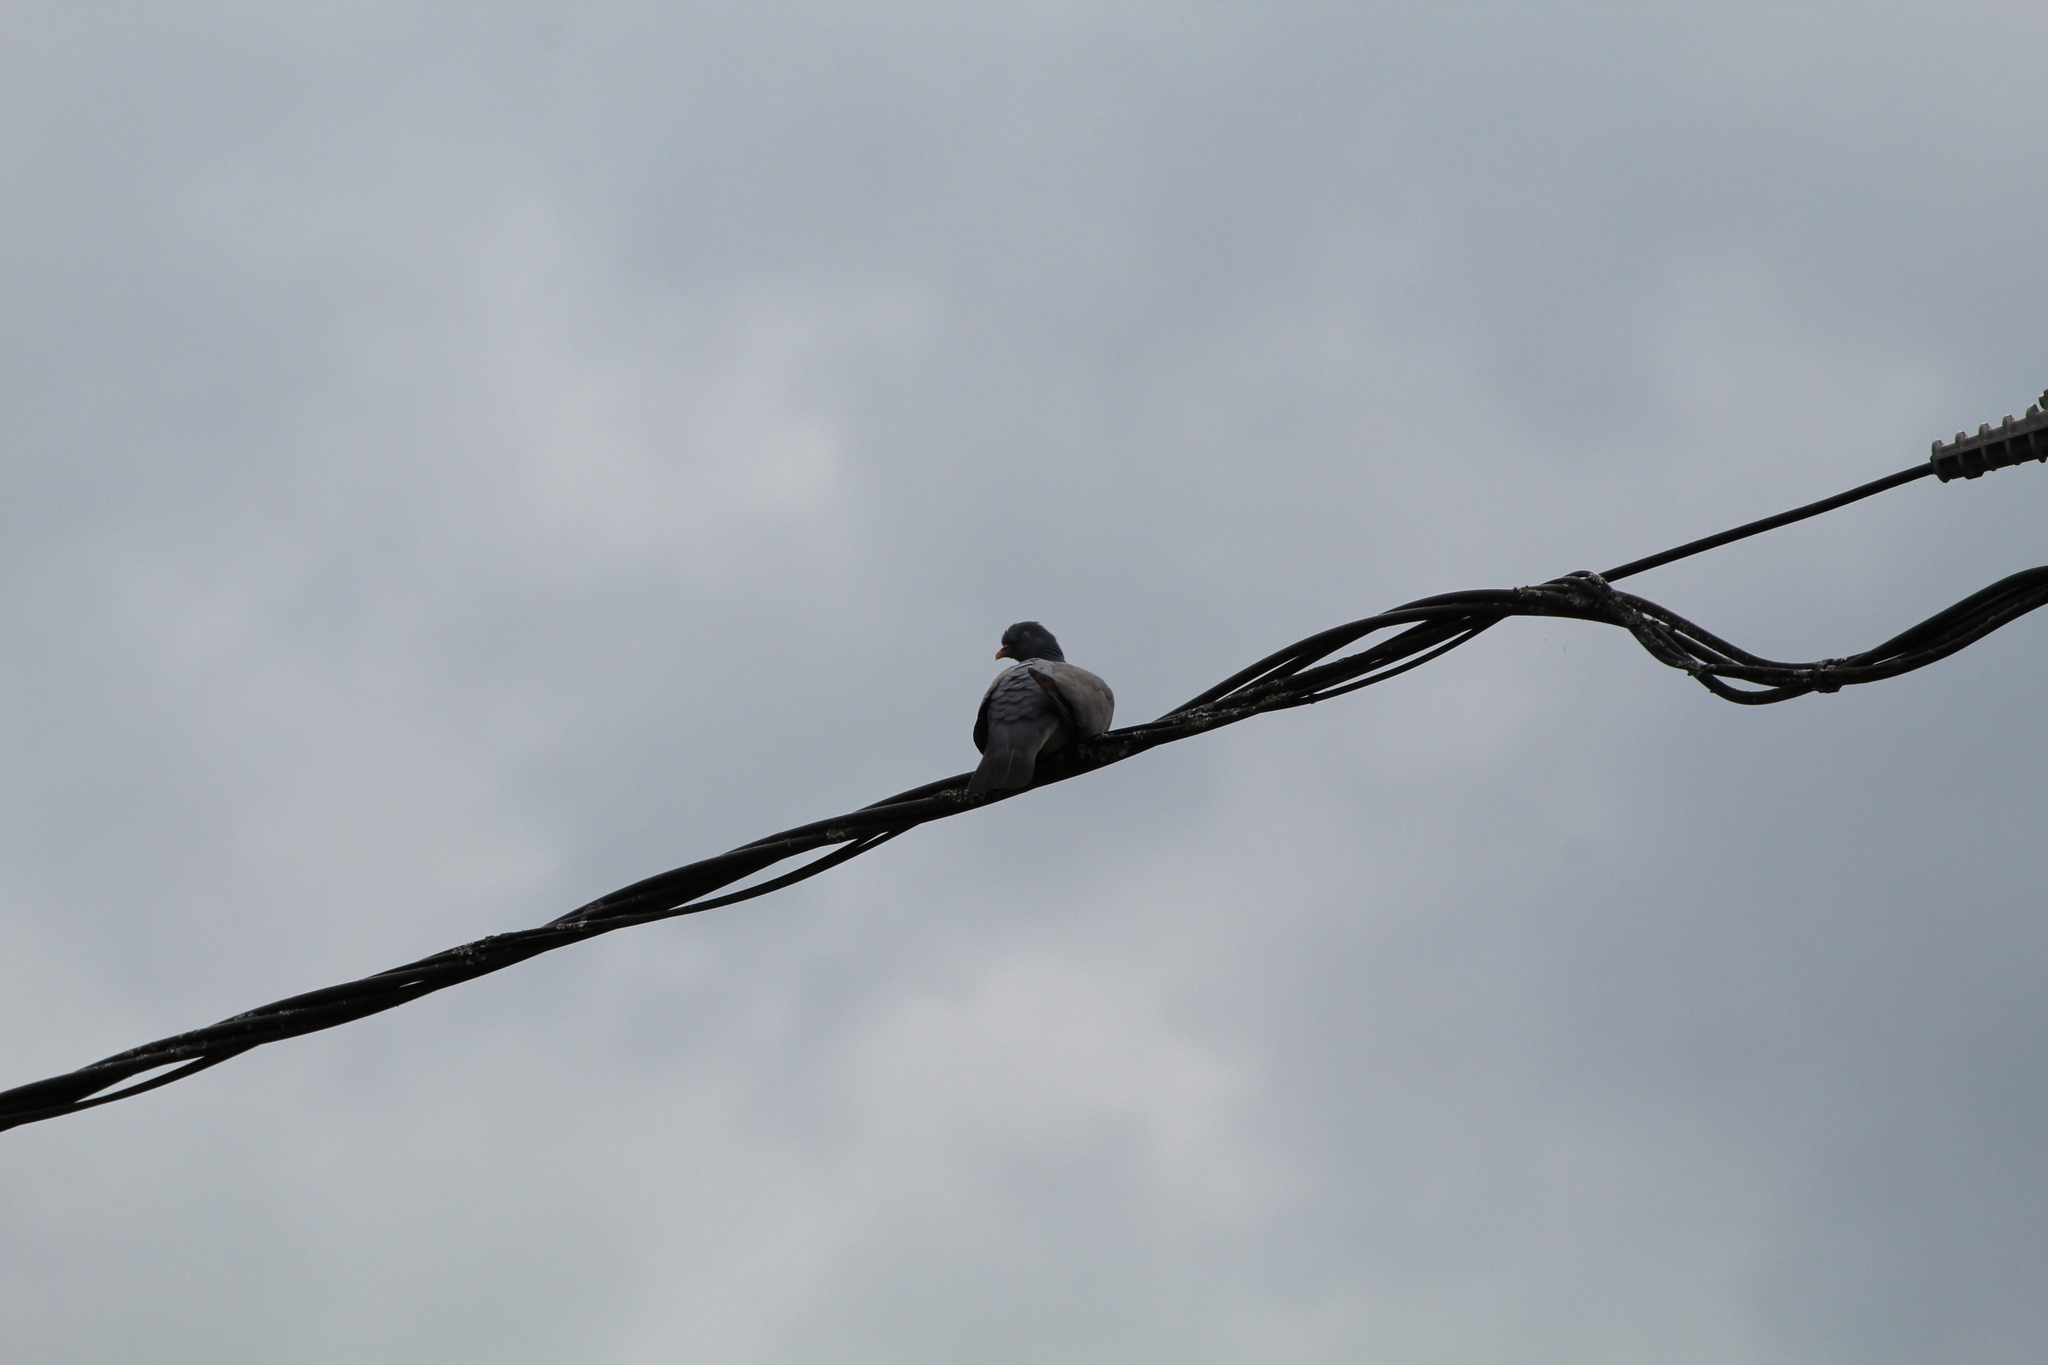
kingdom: Animalia
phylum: Chordata
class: Aves
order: Columbiformes
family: Columbidae
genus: Columba
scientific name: Columba palumbus
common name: Common wood pigeon
